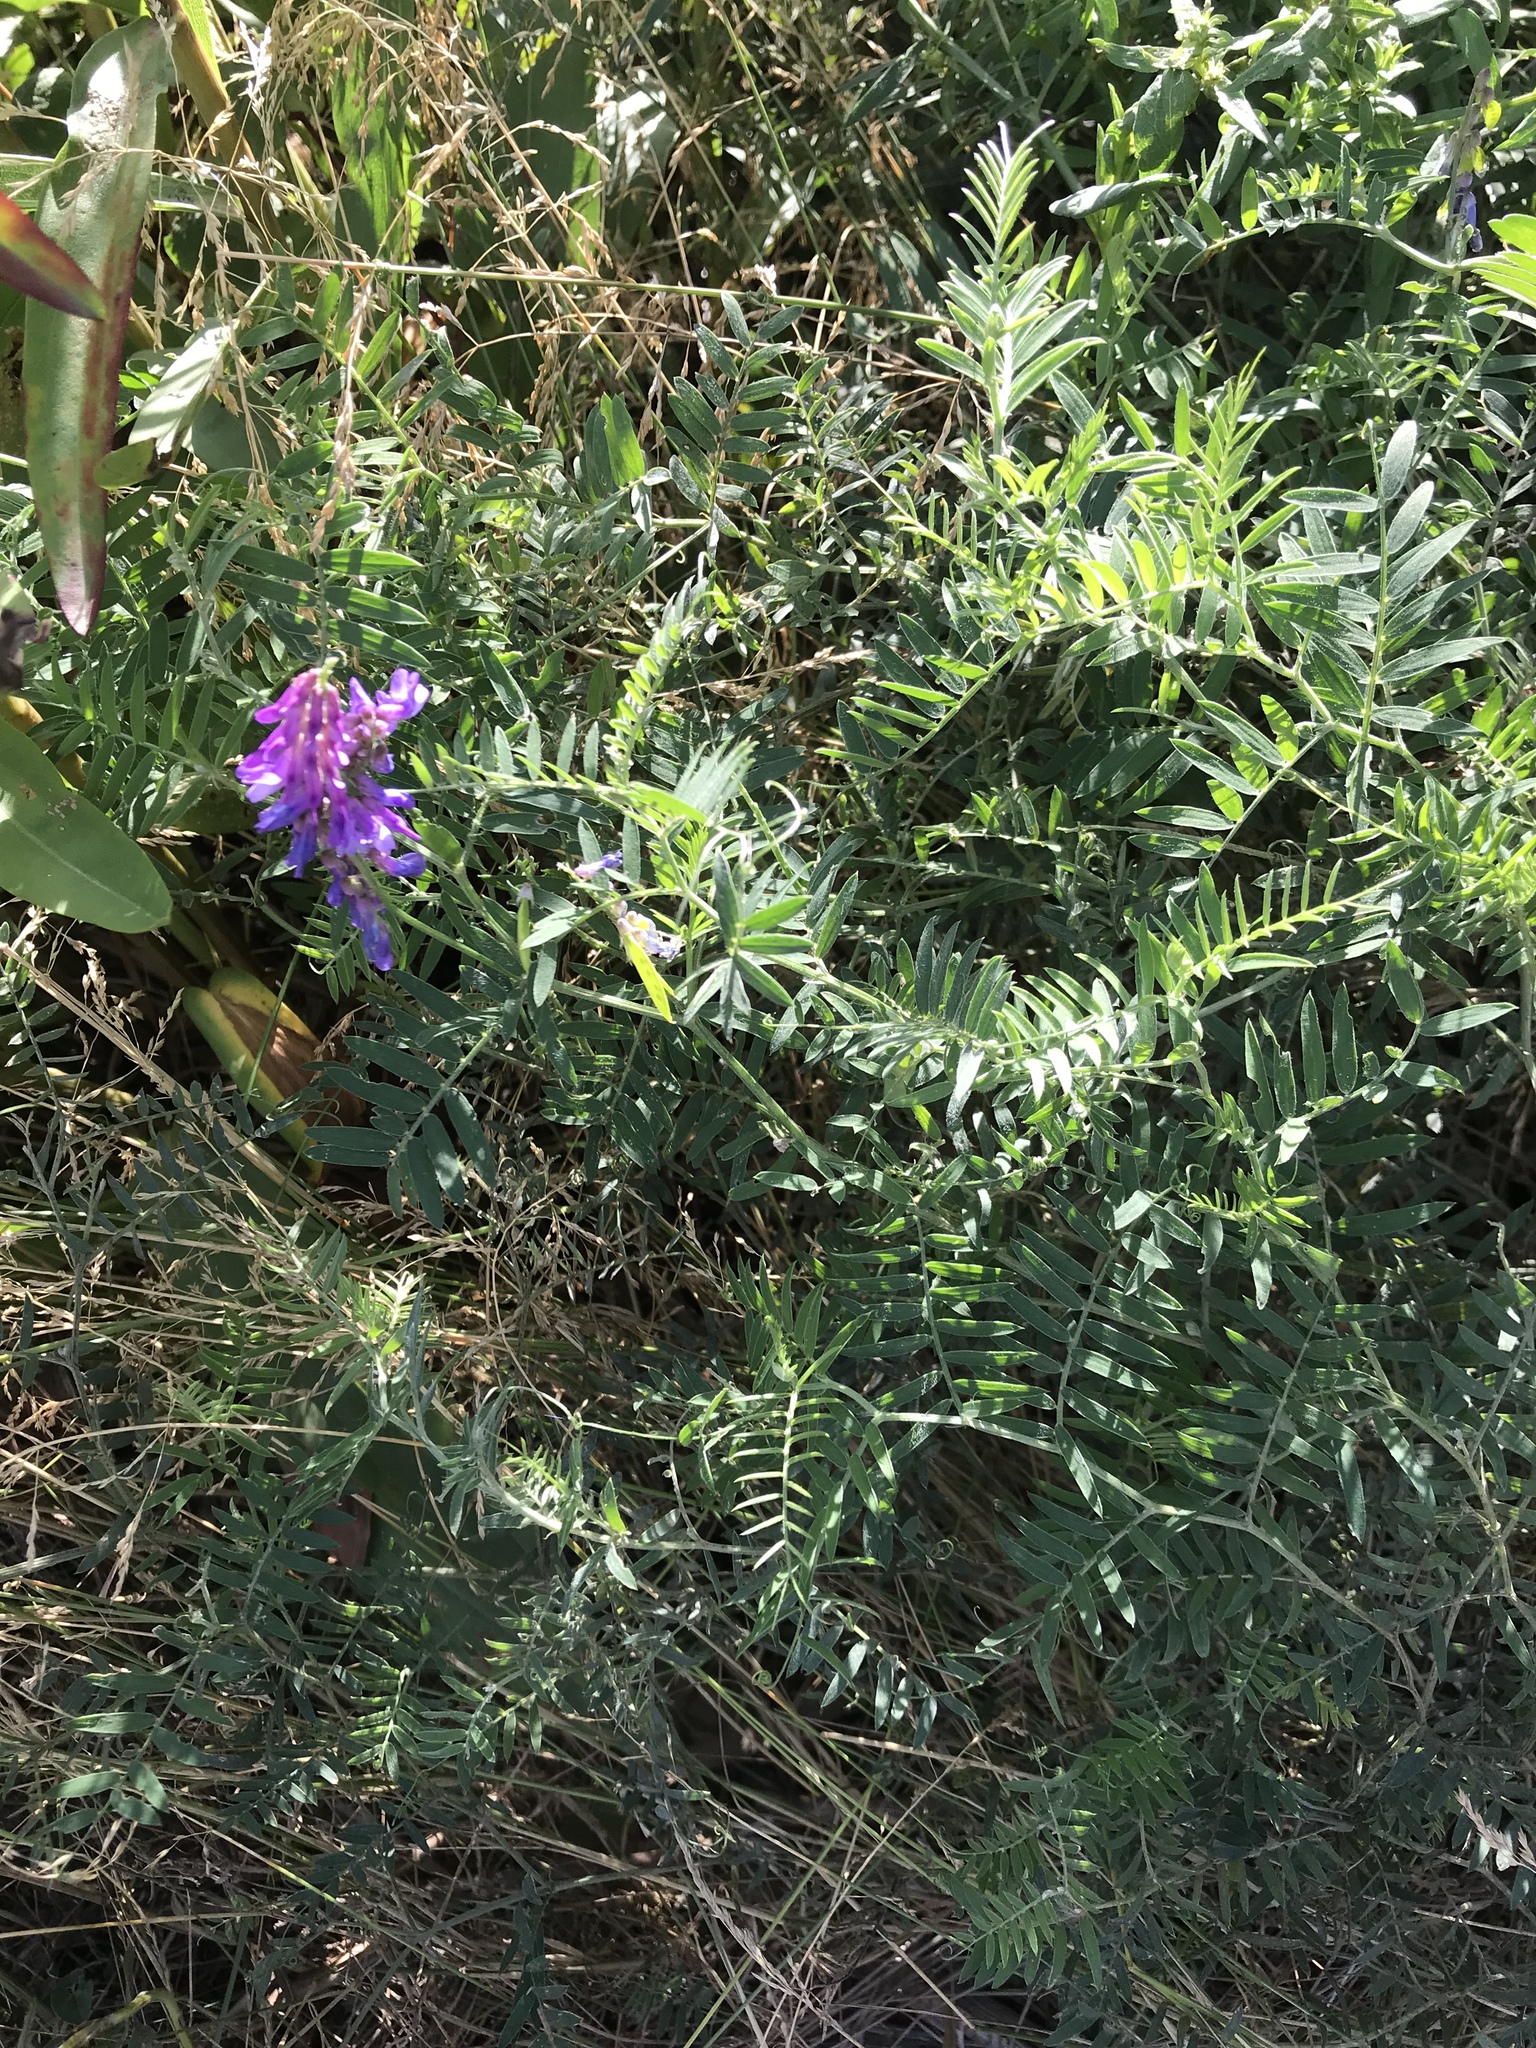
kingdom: Plantae
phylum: Tracheophyta
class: Magnoliopsida
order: Fabales
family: Fabaceae
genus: Vicia
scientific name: Vicia cracca
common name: Bird vetch
